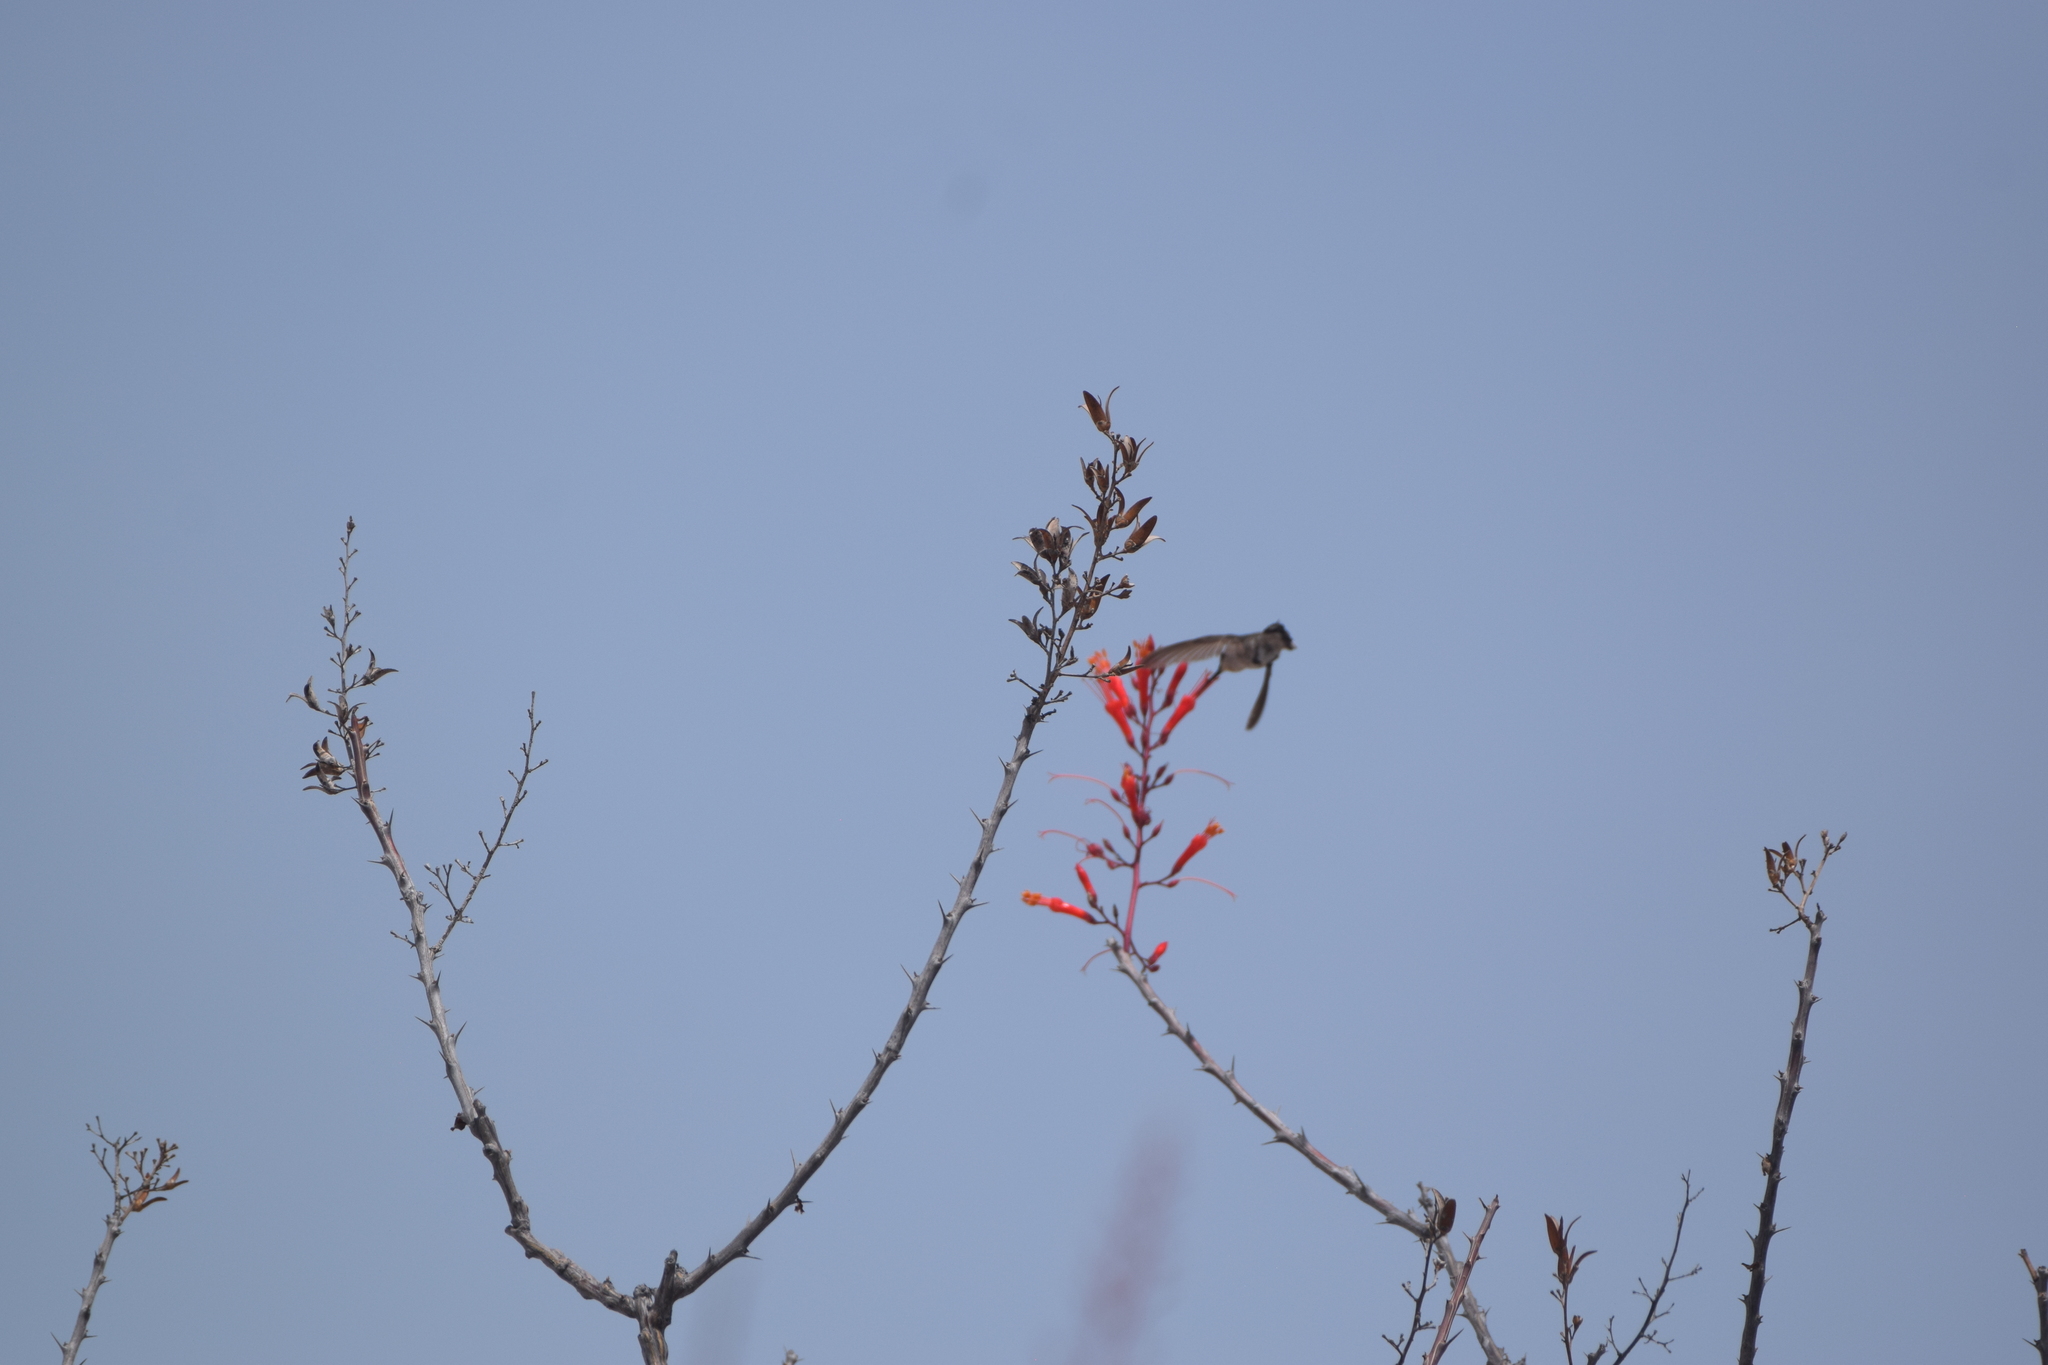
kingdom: Animalia
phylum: Chordata
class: Aves
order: Apodiformes
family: Trochilidae
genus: Calypte
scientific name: Calypte costae
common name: Costa's hummingbird
